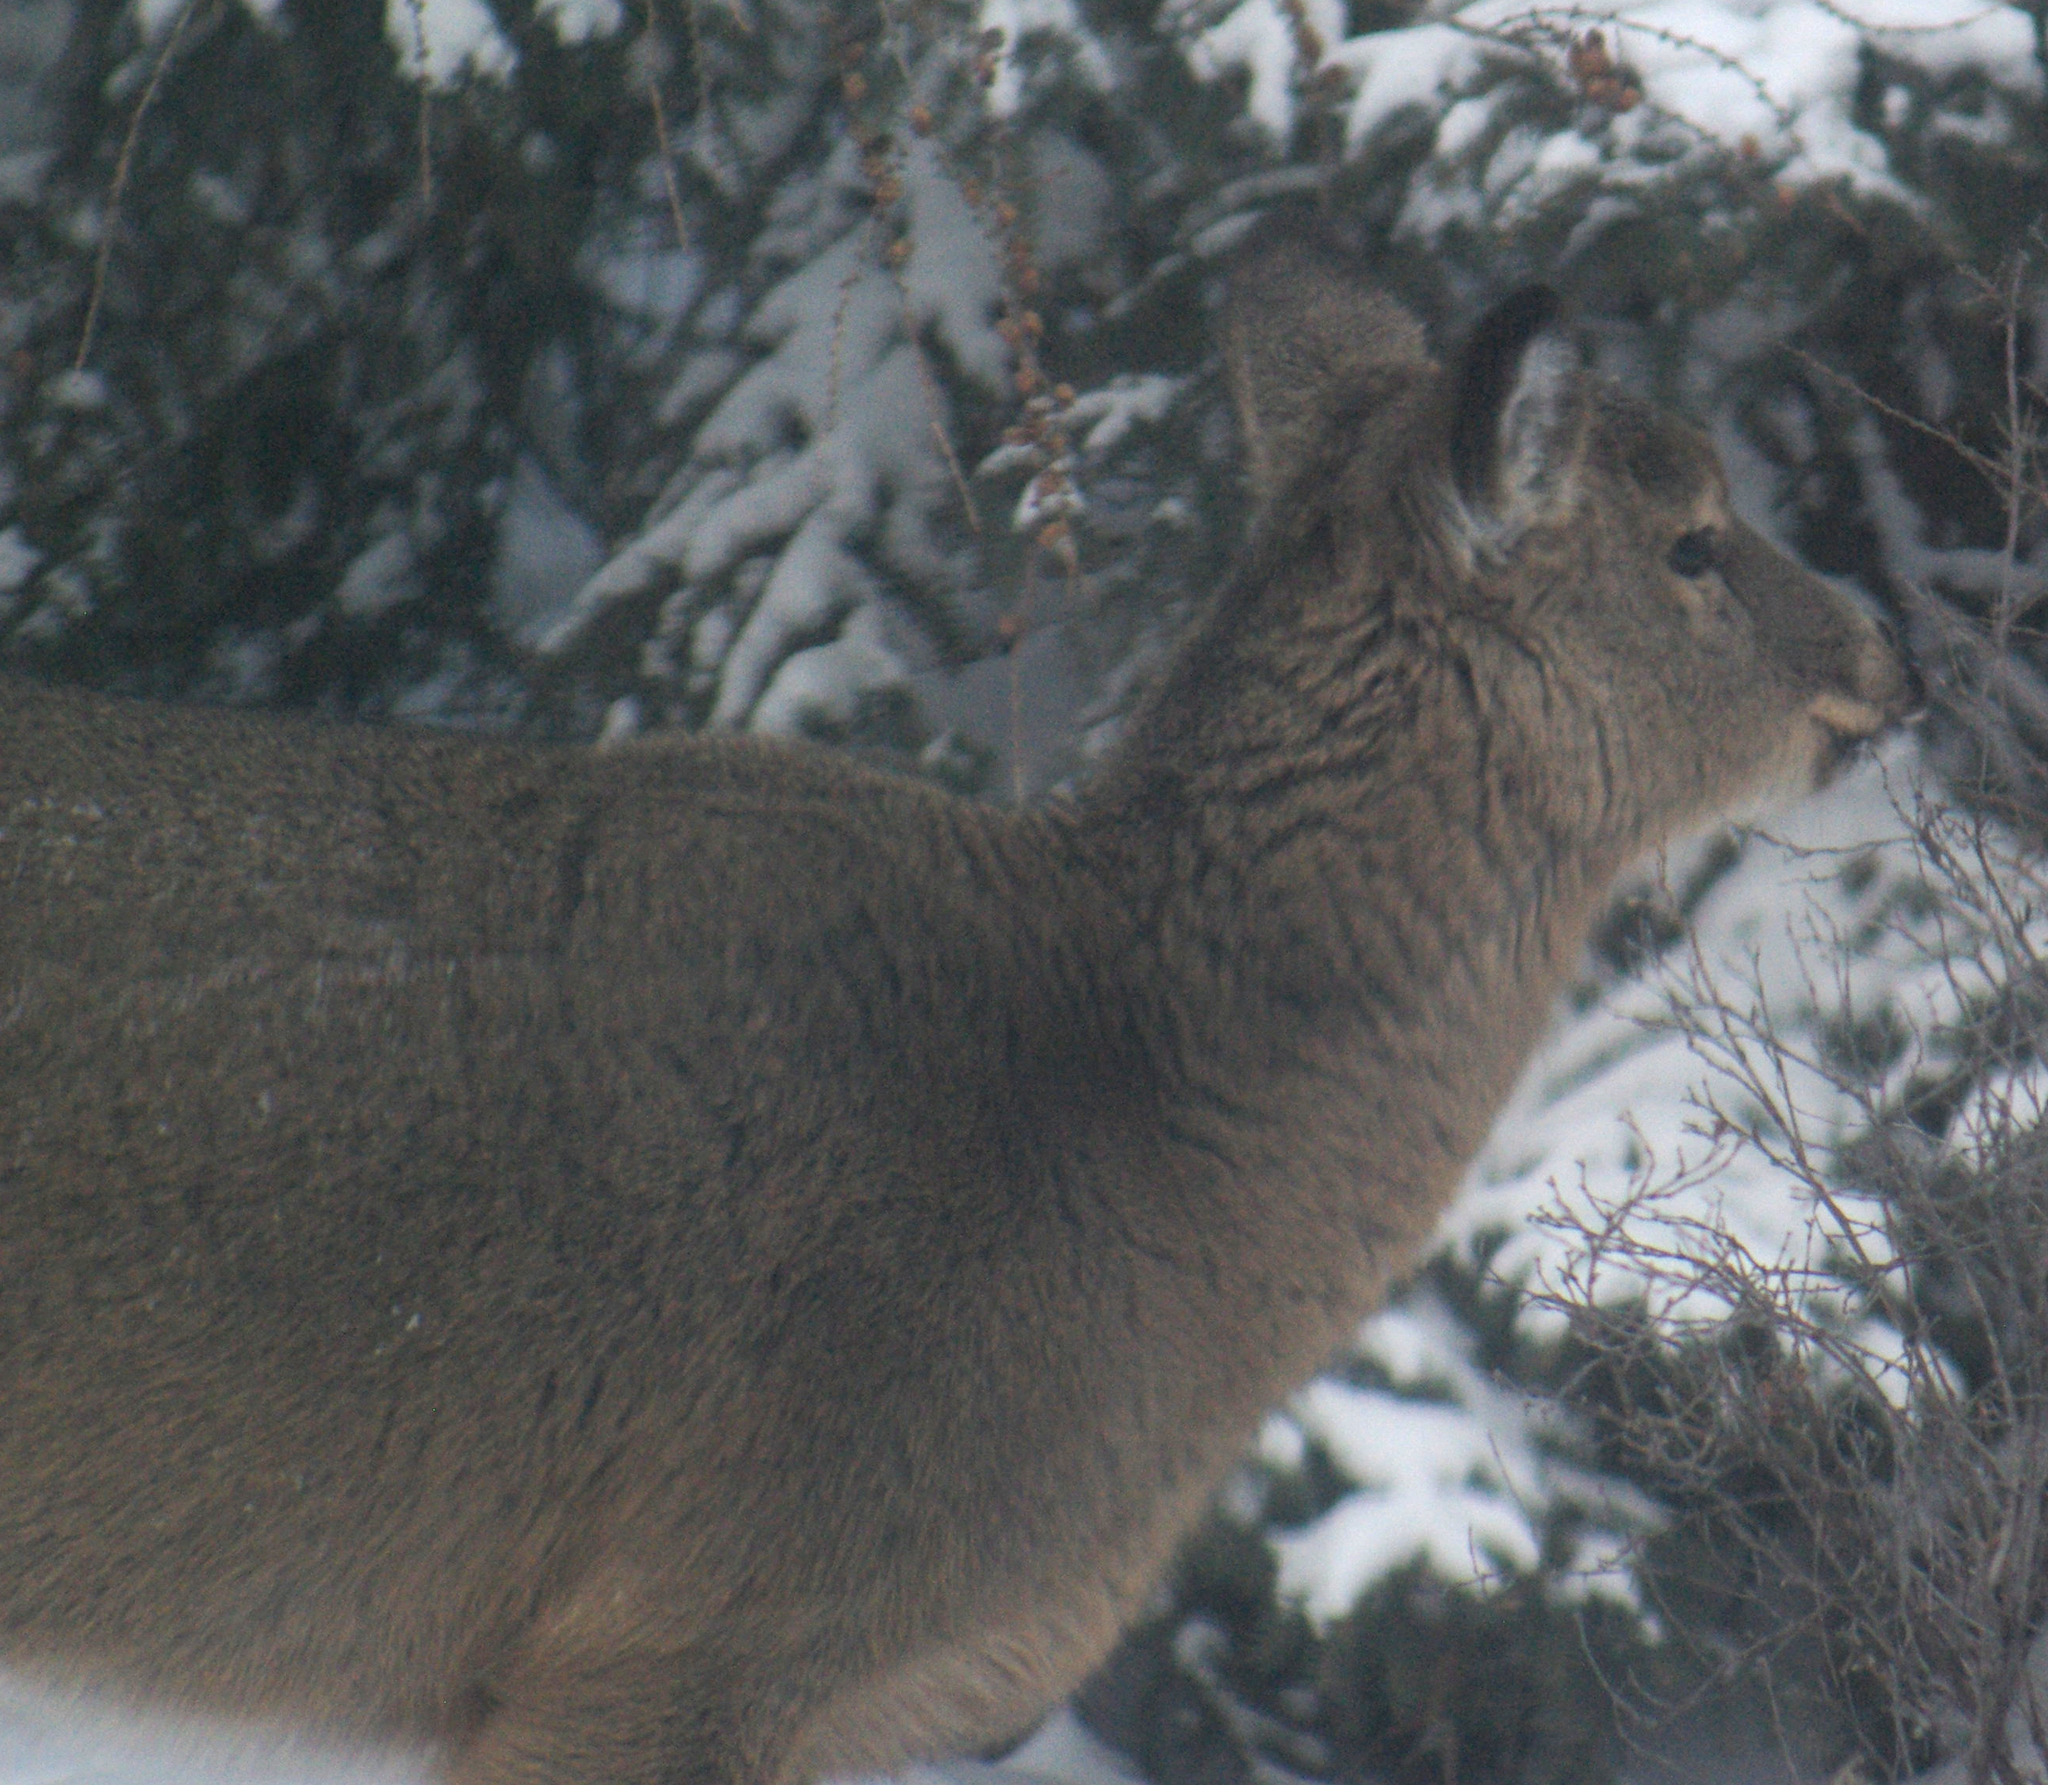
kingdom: Animalia
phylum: Chordata
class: Mammalia
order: Artiodactyla
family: Cervidae
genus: Odocoileus
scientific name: Odocoileus virginianus
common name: White-tailed deer
